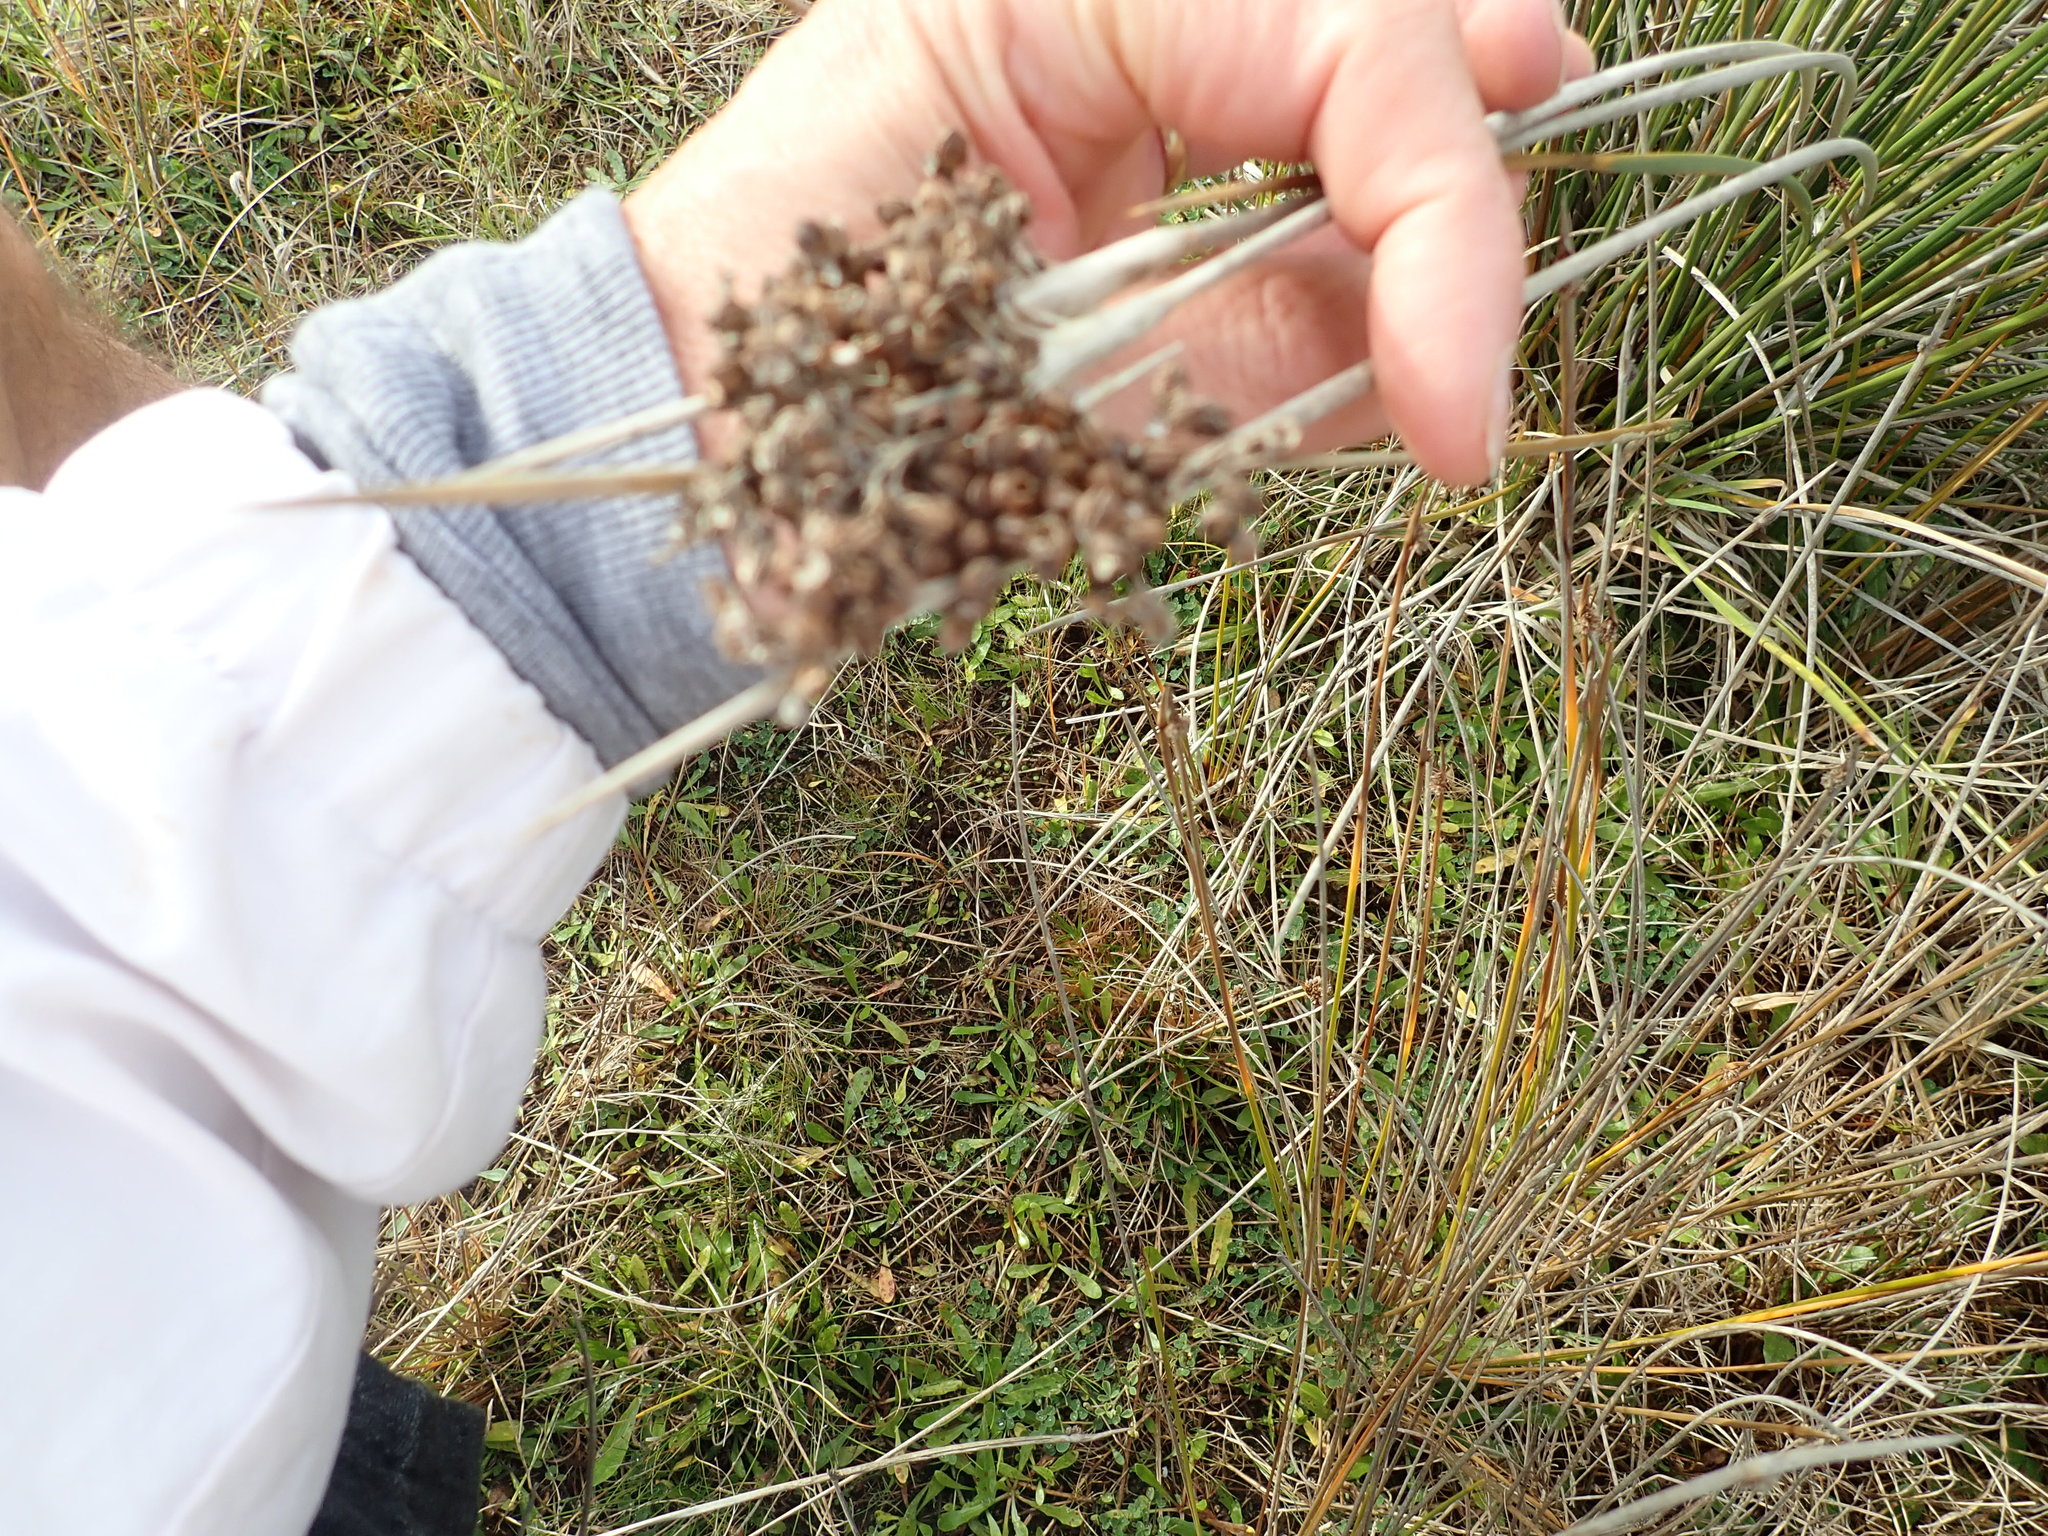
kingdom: Plantae
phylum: Tracheophyta
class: Liliopsida
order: Poales
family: Juncaceae
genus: Juncus
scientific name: Juncus acutus
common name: Sharp rush
